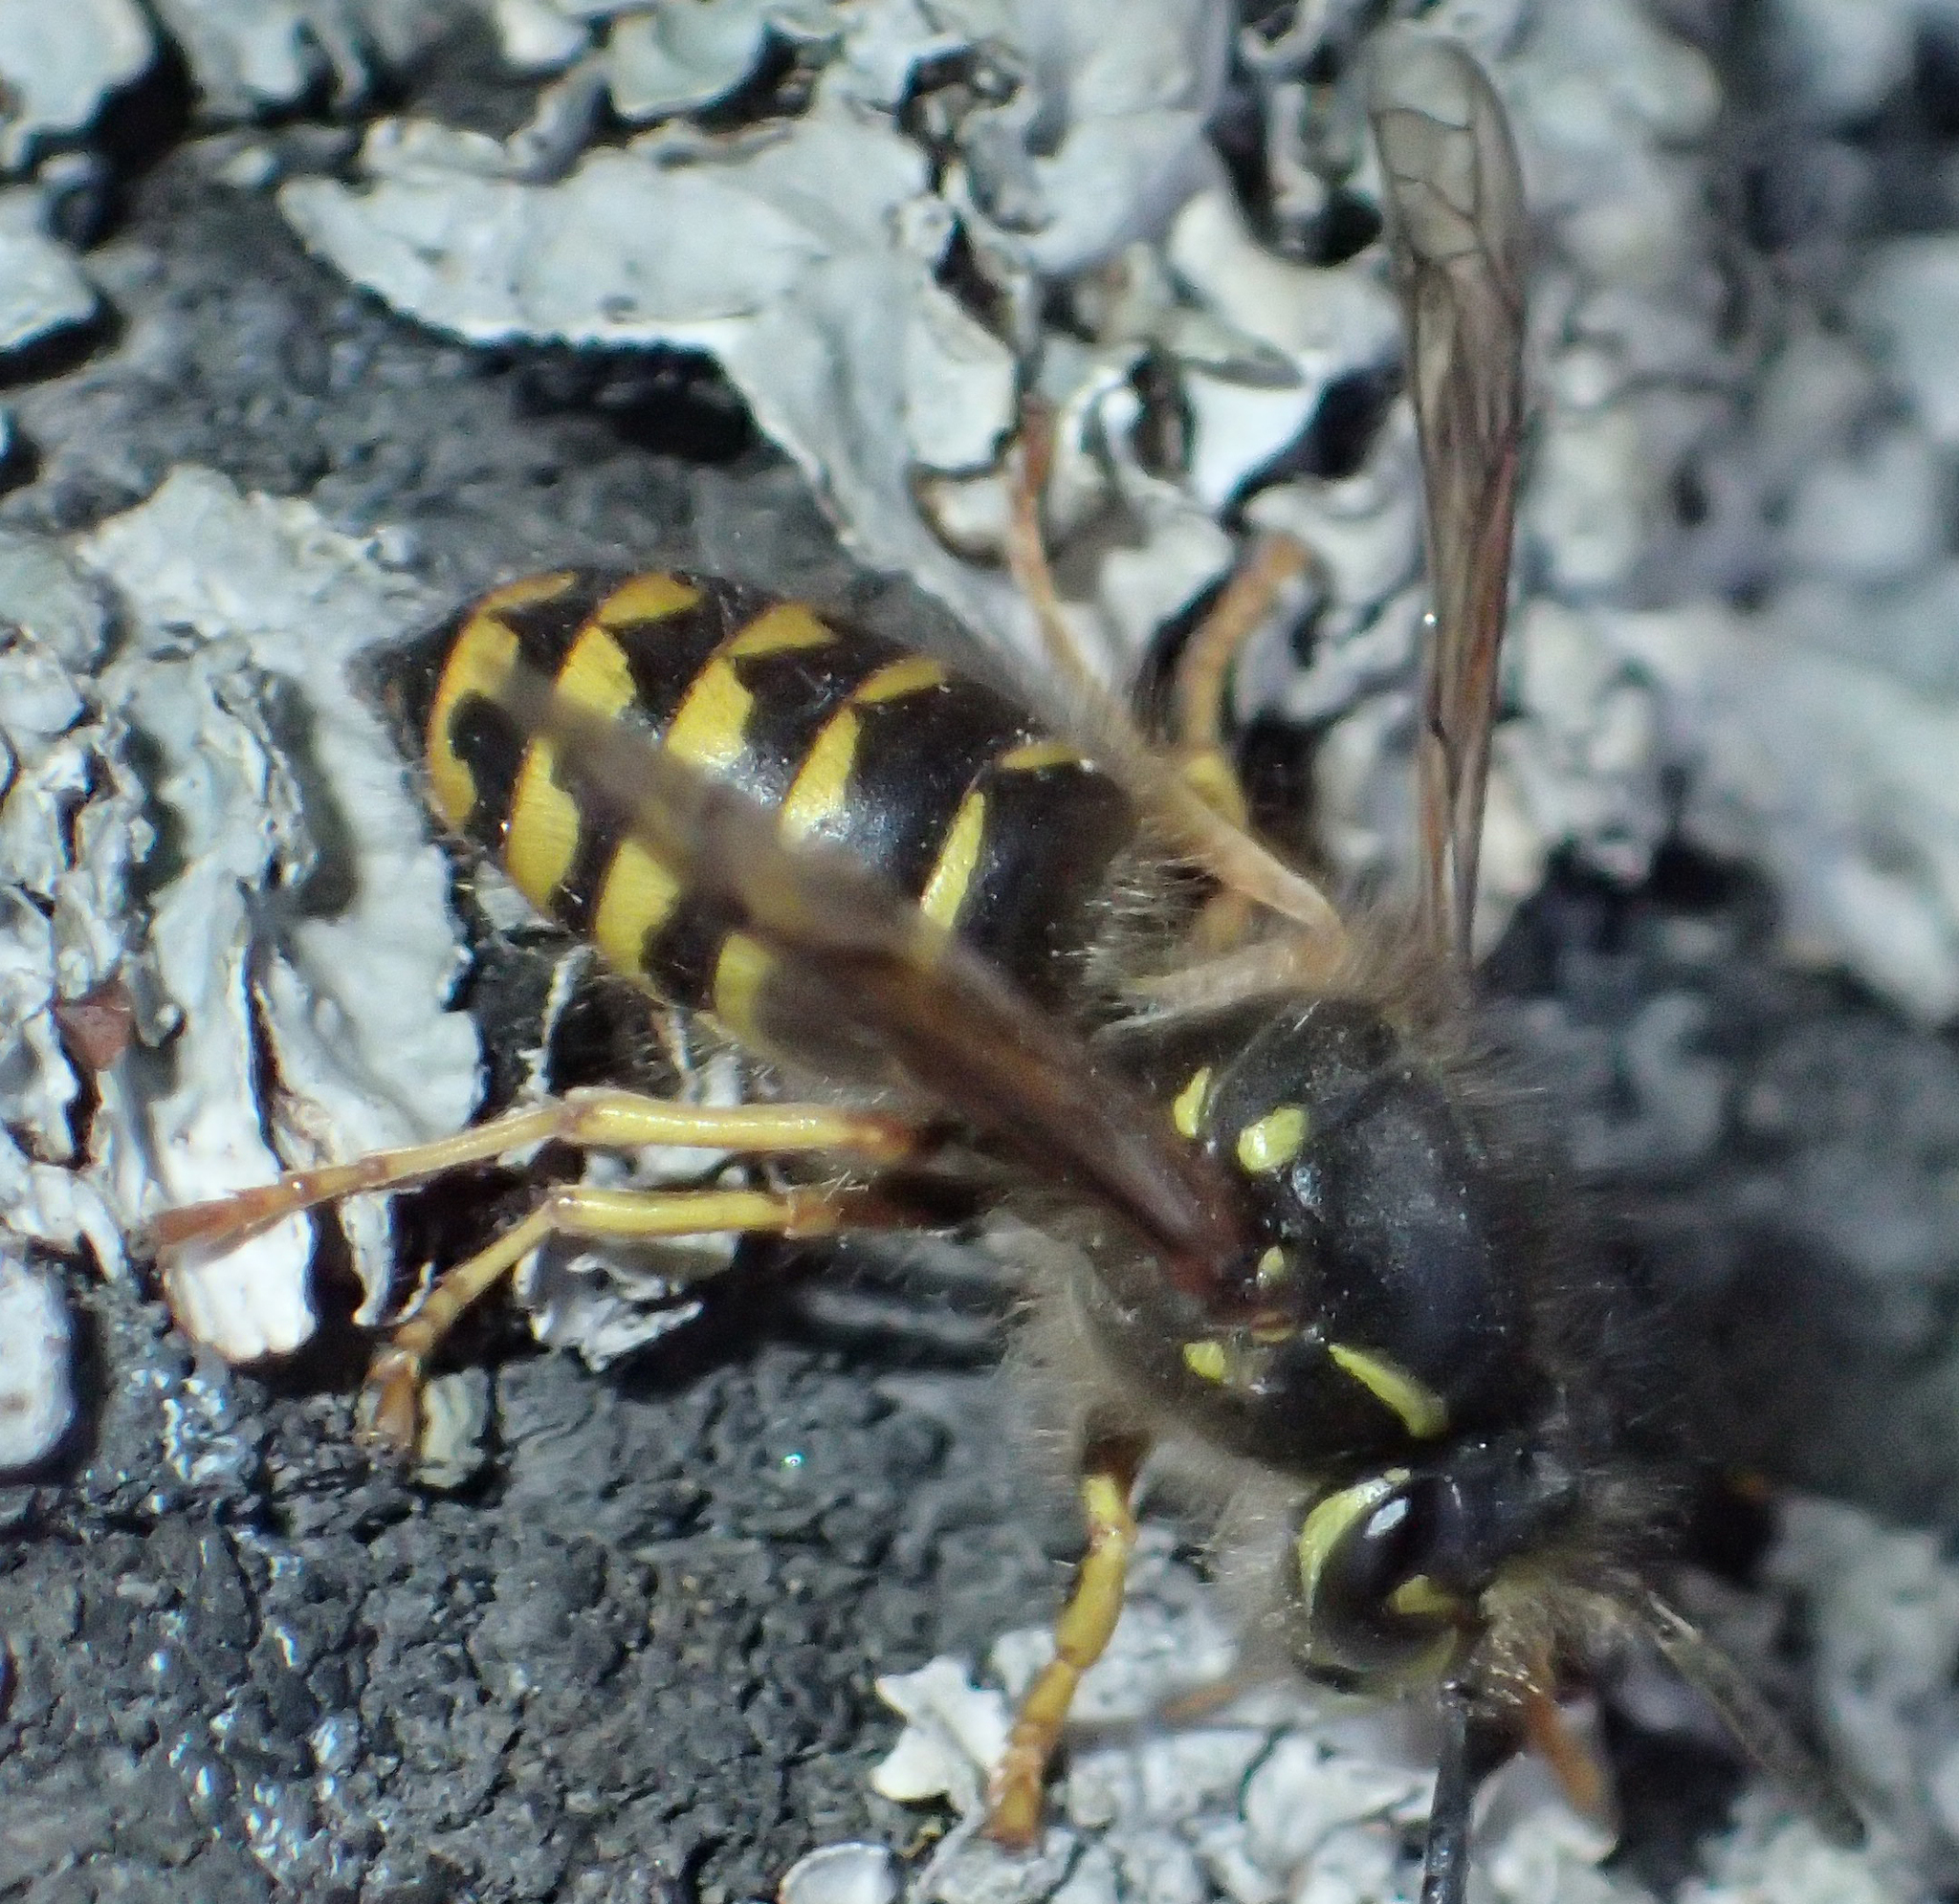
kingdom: Animalia
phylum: Arthropoda
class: Insecta
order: Hymenoptera
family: Vespidae
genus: Dolichovespula
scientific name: Dolichovespula arenaria
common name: Aerial yellowjacket
